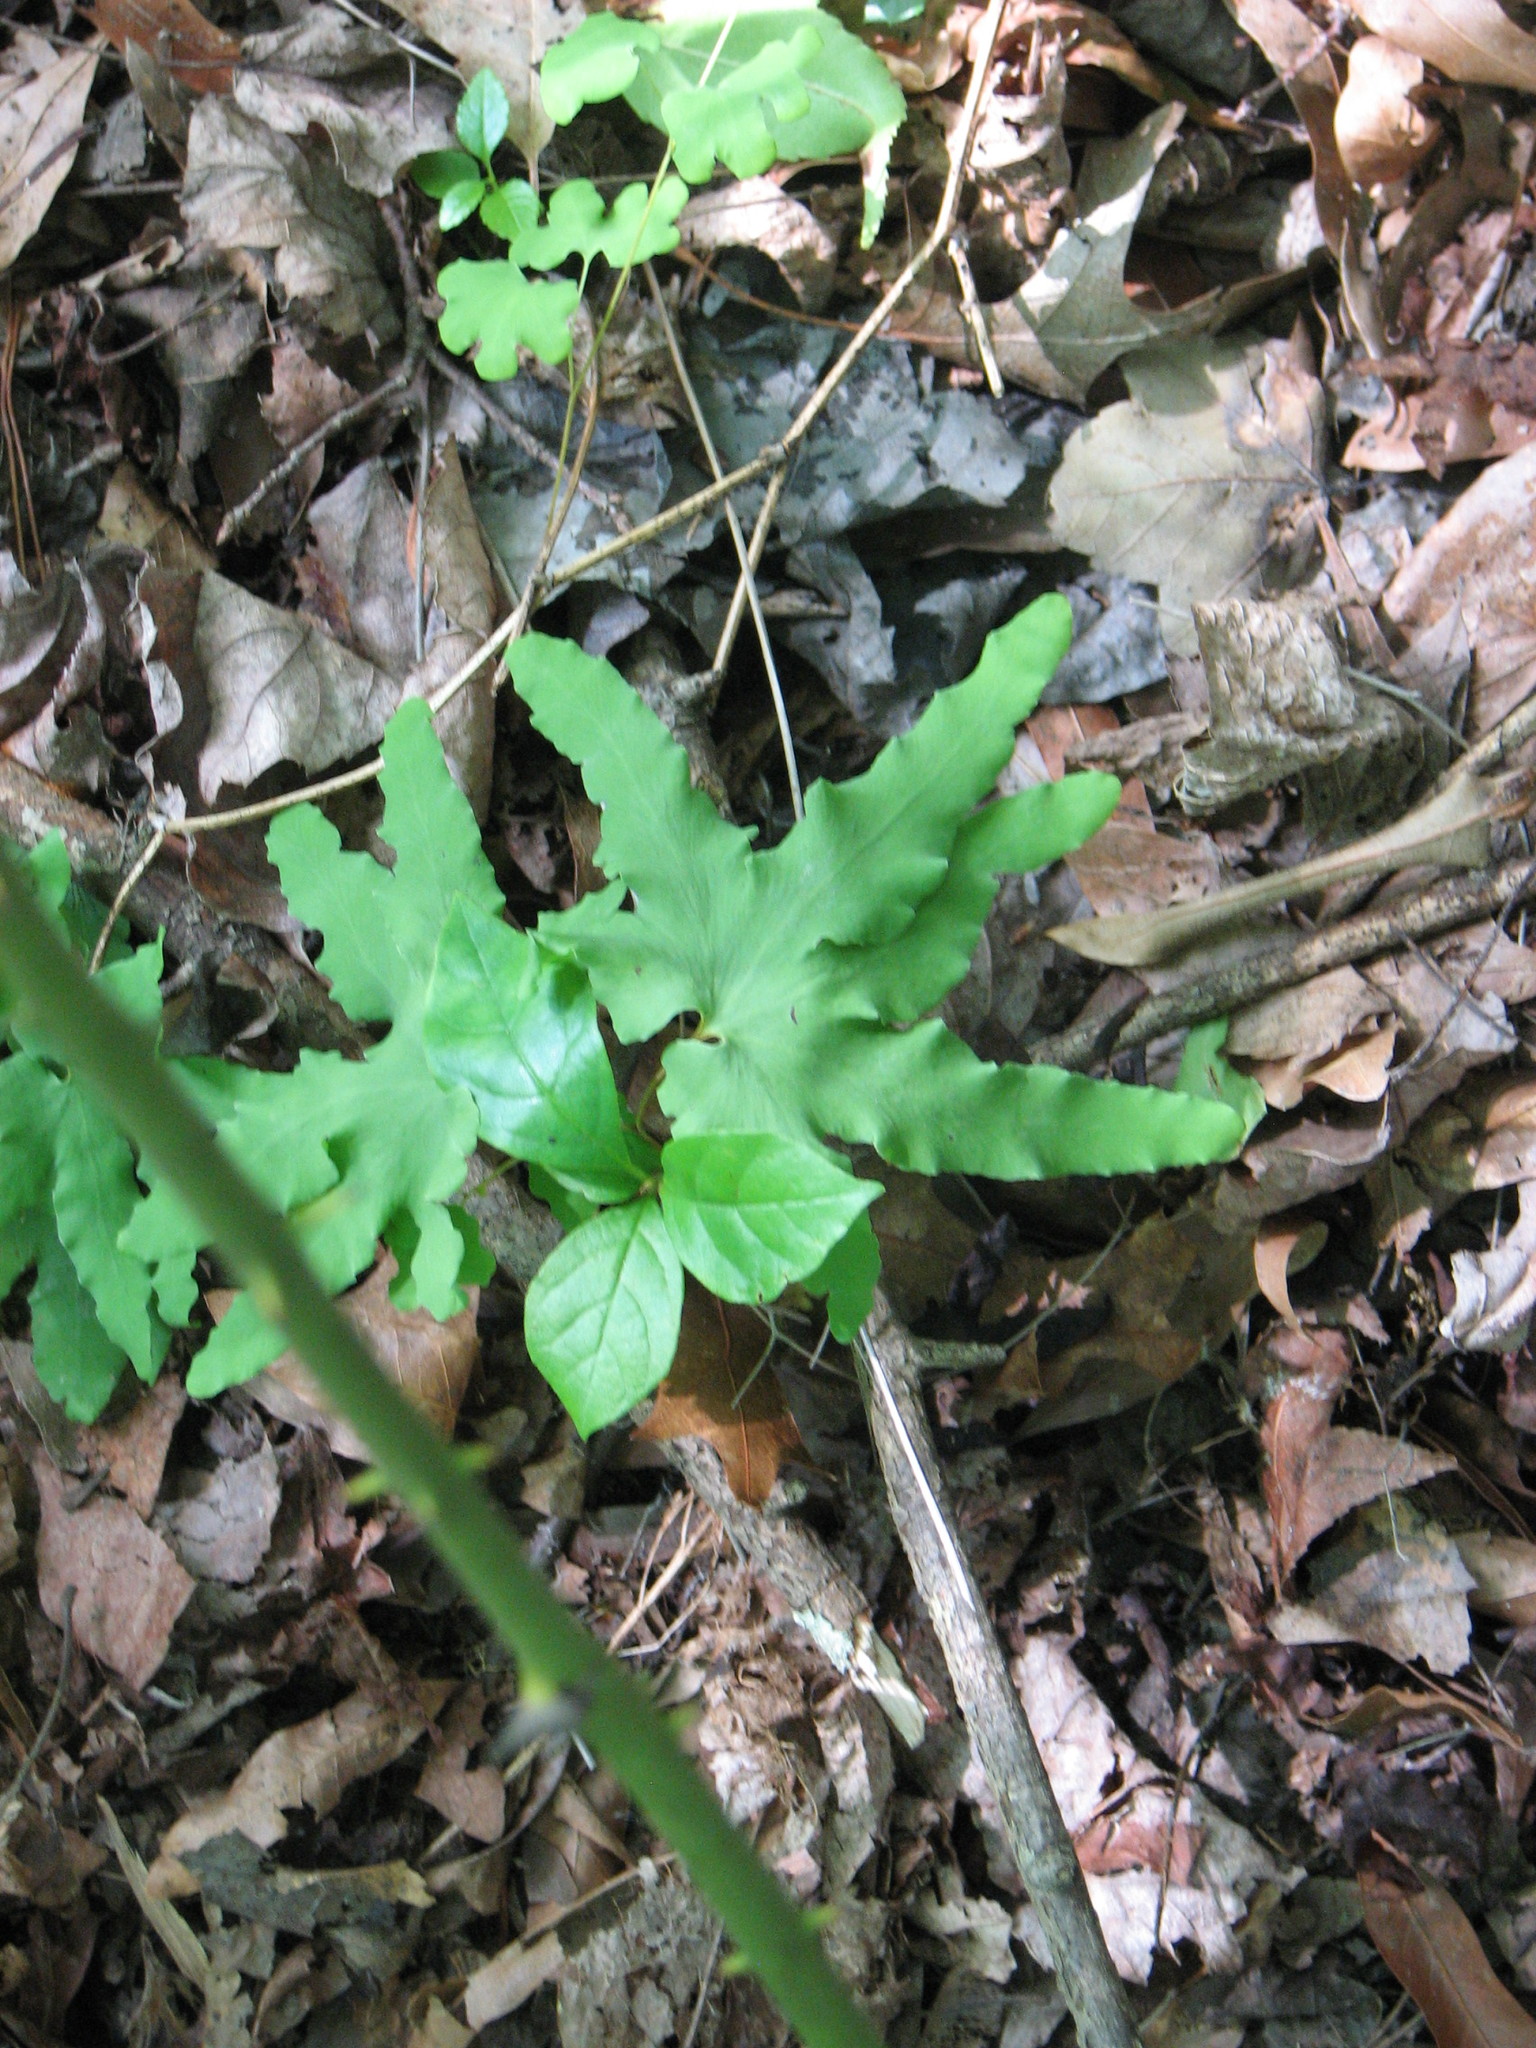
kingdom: Plantae
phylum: Tracheophyta
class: Polypodiopsida
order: Schizaeales
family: Lygodiaceae
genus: Lygodium
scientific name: Lygodium palmatum
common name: American climbing fern
